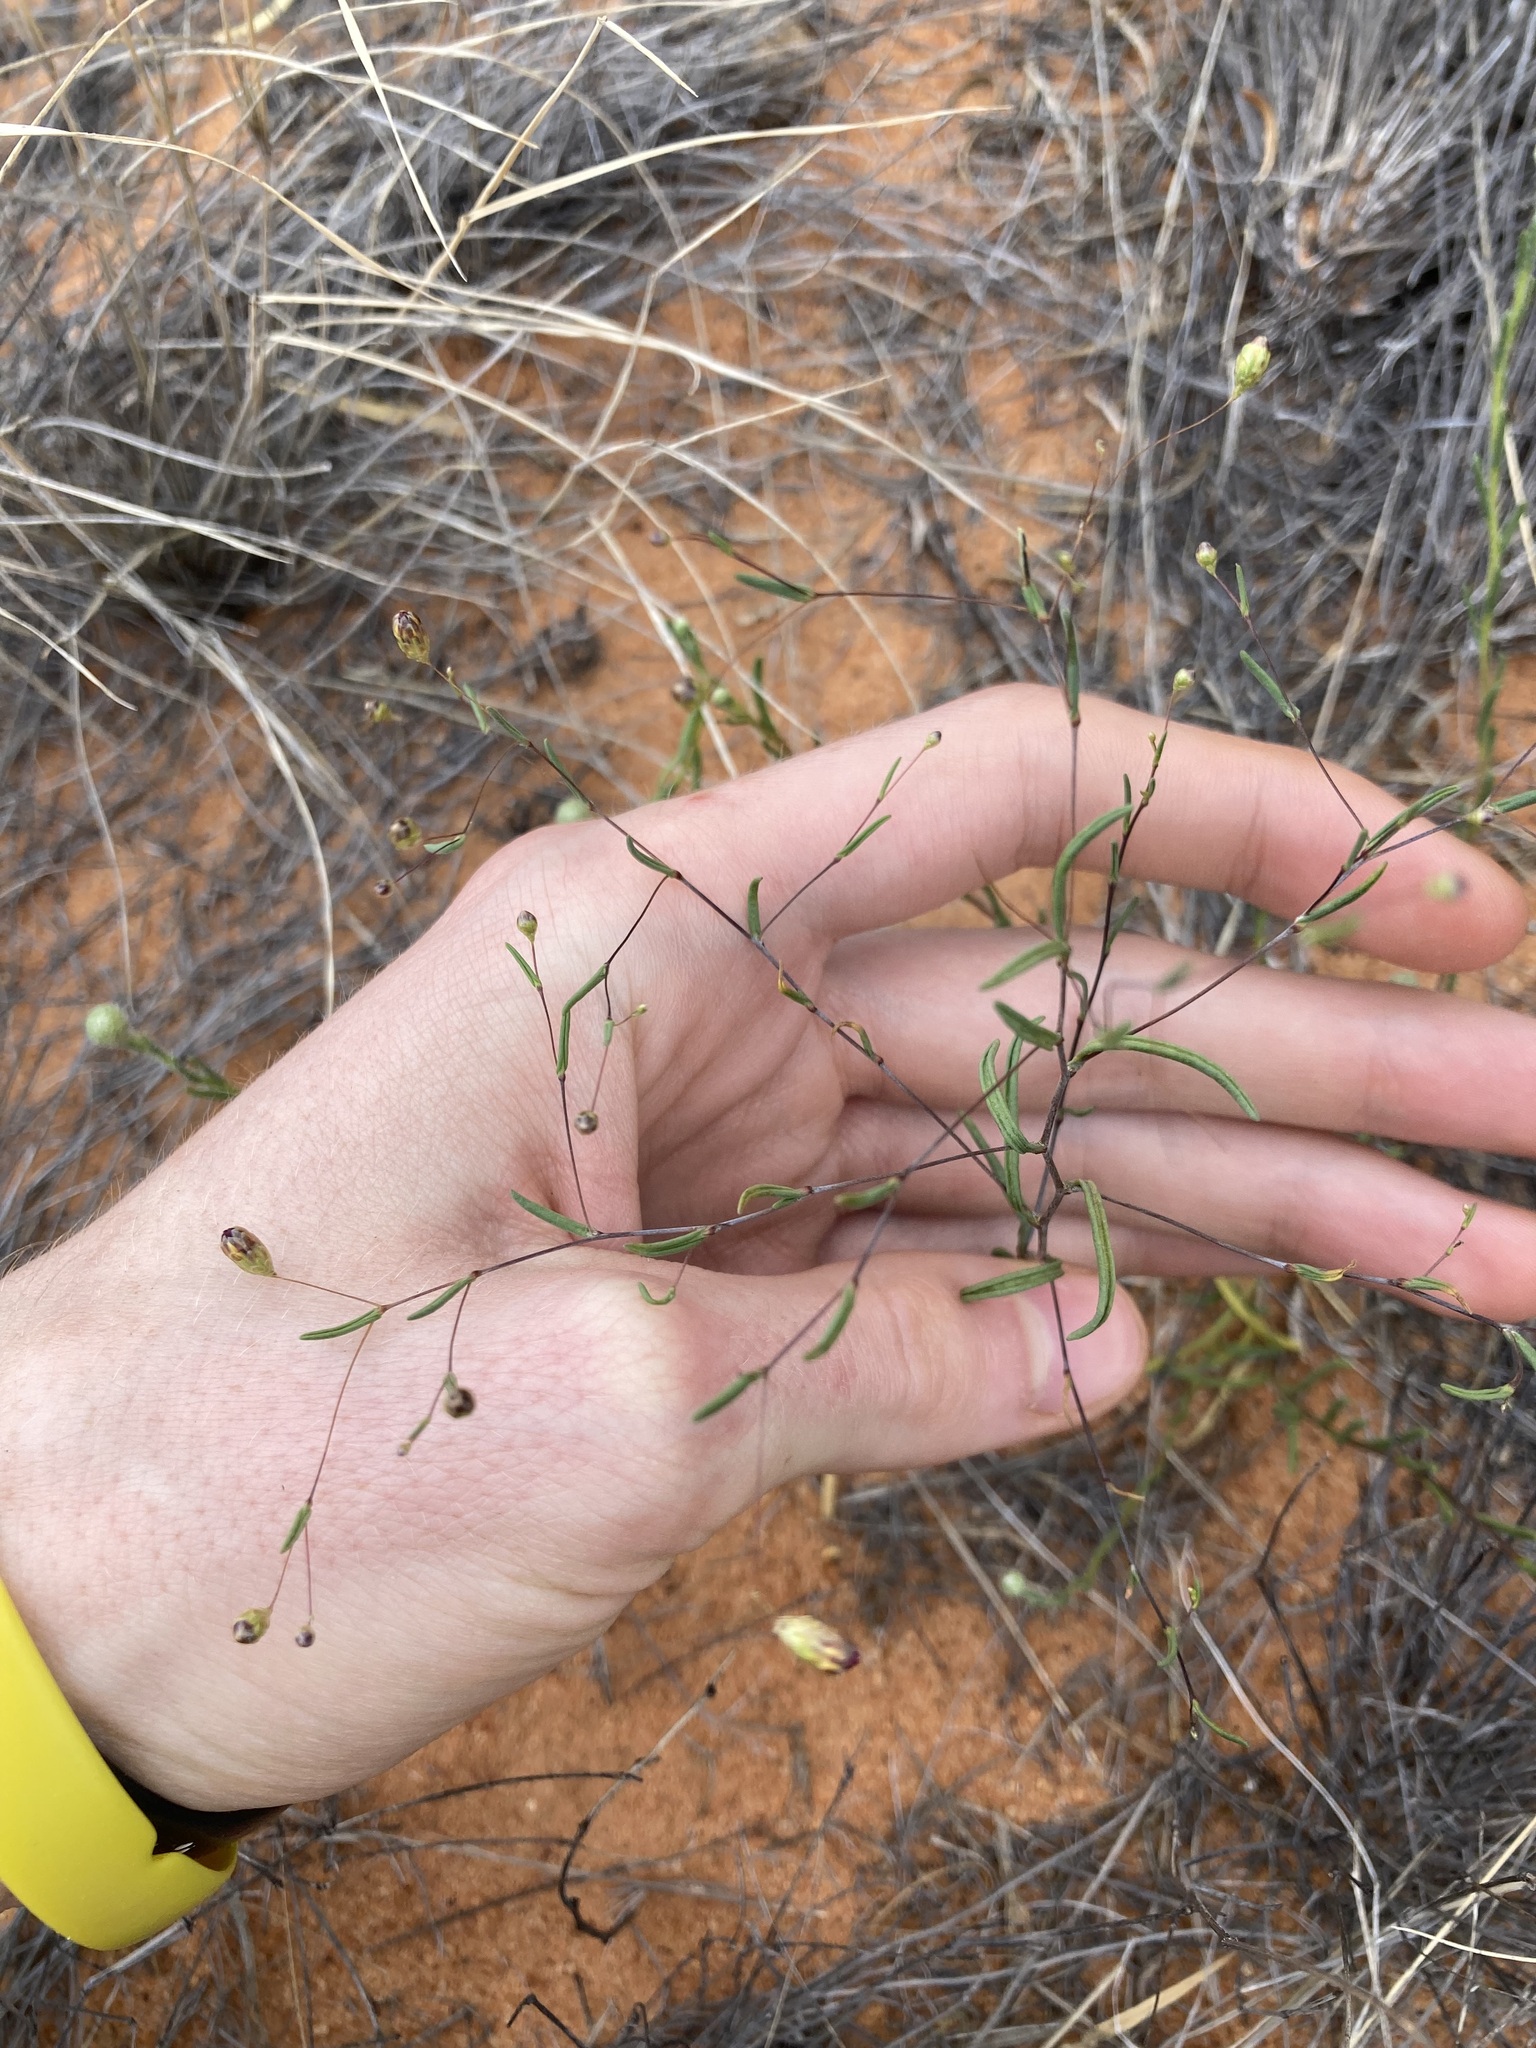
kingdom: Plantae
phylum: Tracheophyta
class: Magnoliopsida
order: Asterales
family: Asteraceae
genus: Siemssenia
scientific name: Siemssenia capillaris
